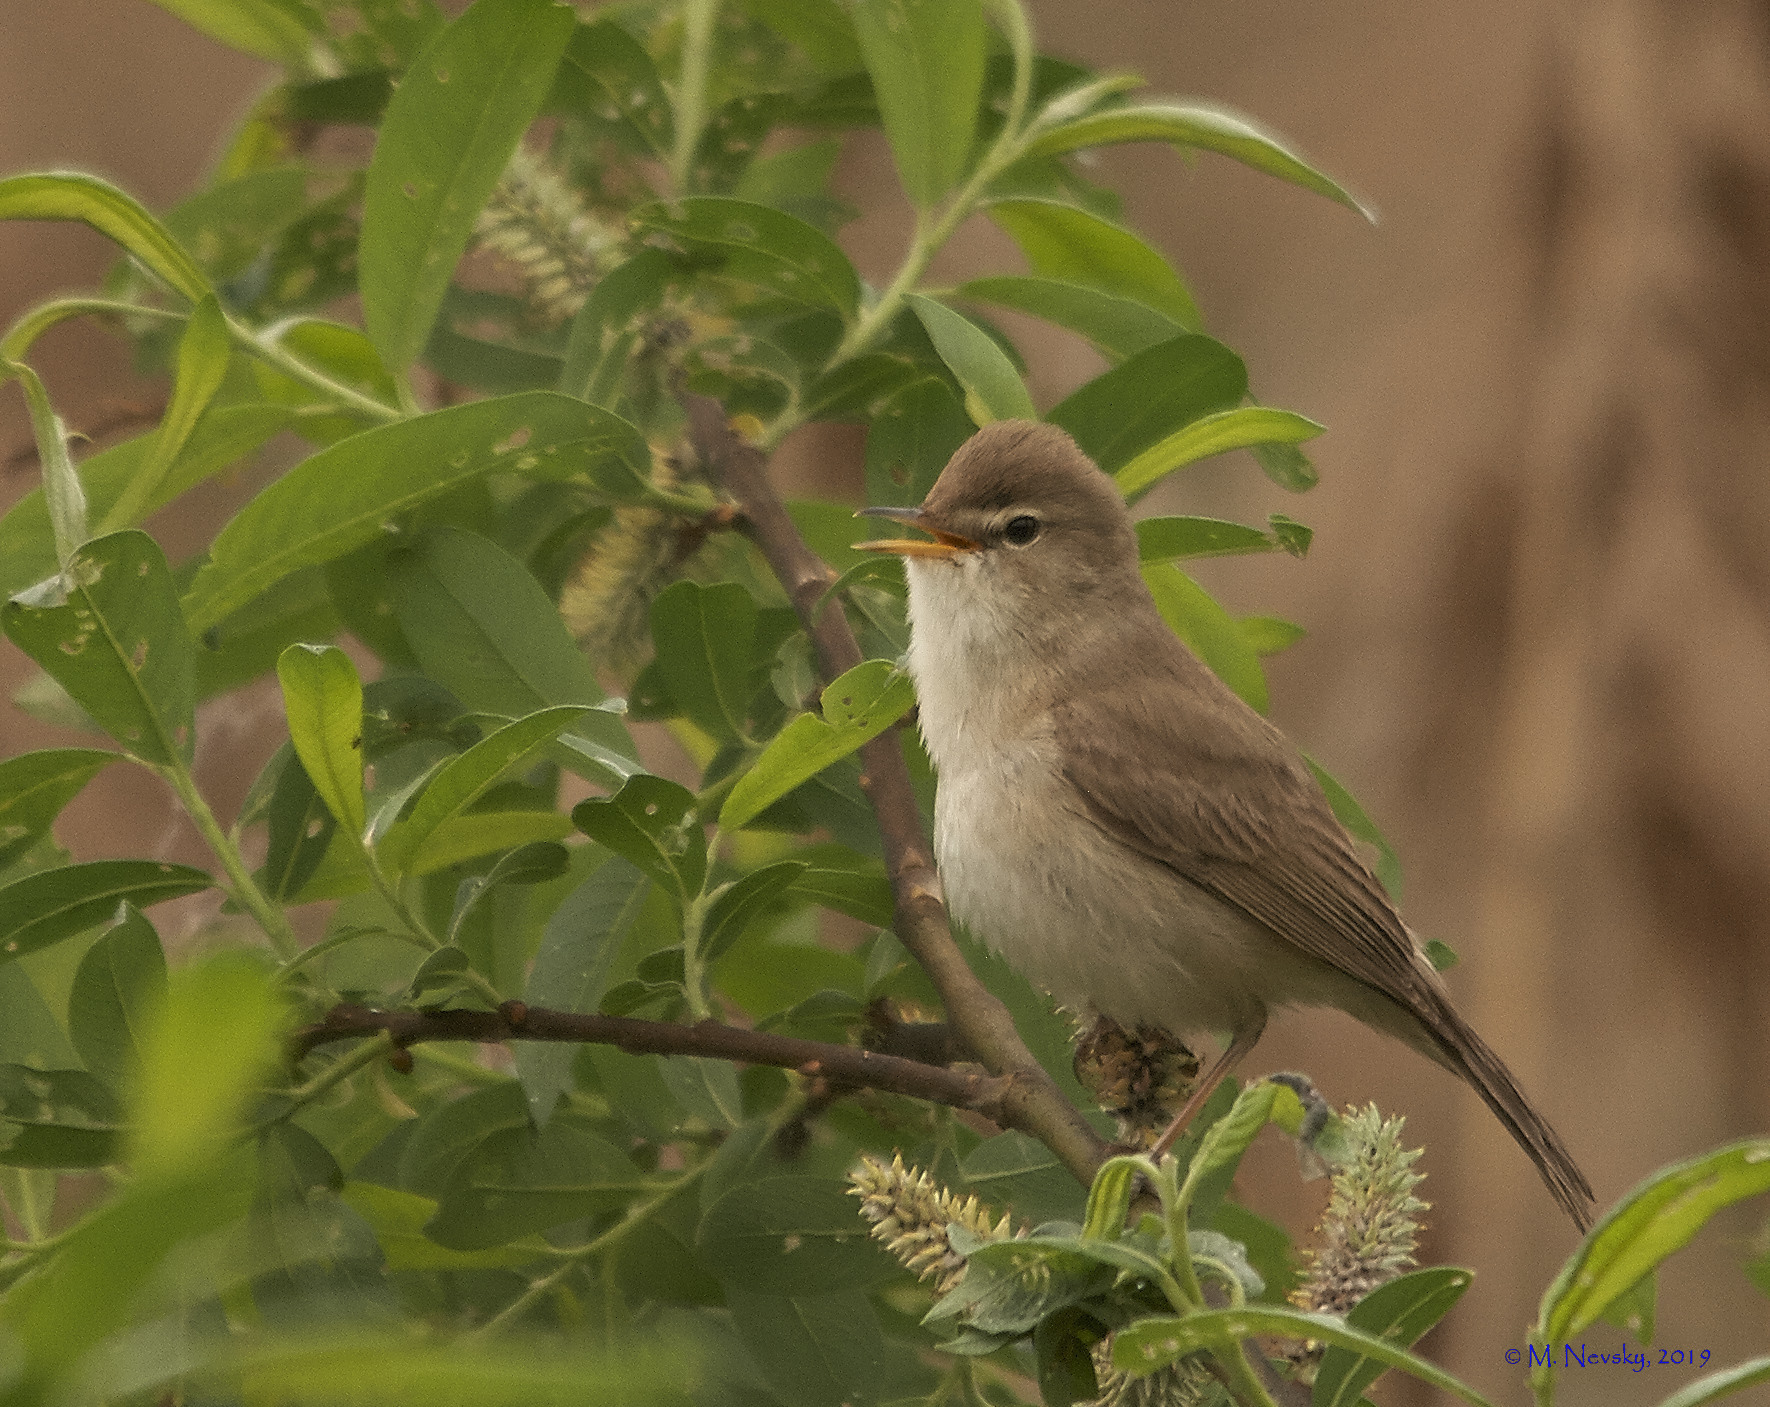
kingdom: Animalia
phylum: Chordata
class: Aves
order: Passeriformes
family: Acrocephalidae
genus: Iduna
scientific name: Iduna caligata
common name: Booted warbler
